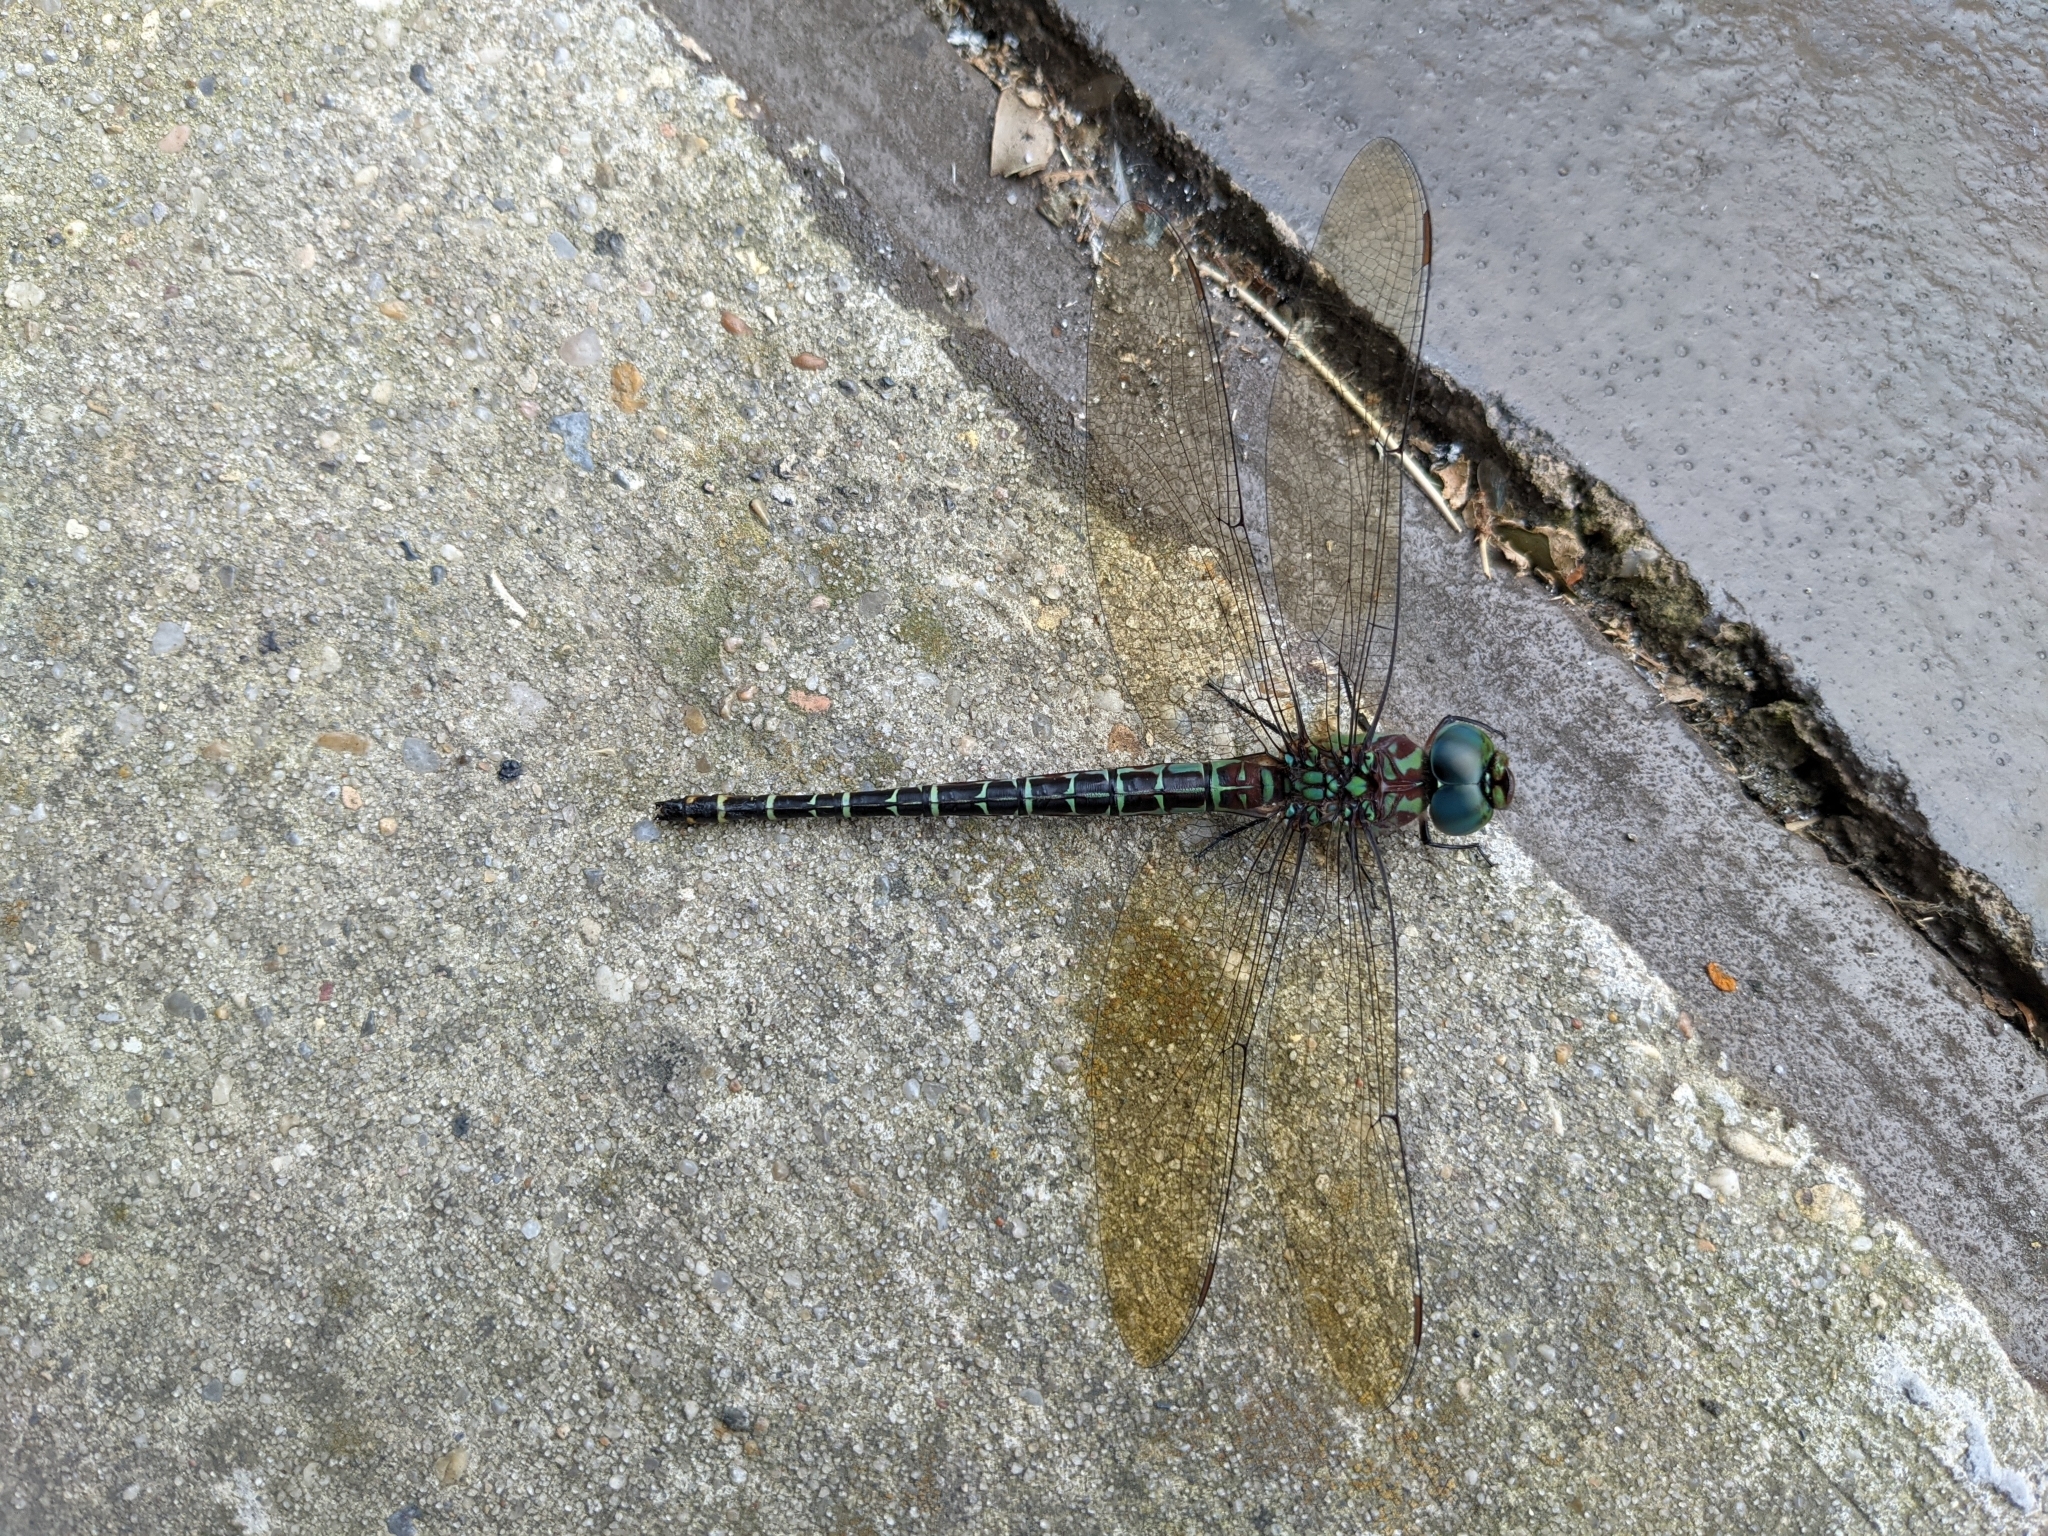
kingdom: Animalia
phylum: Arthropoda
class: Insecta
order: Odonata
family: Aeshnidae
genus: Coryphaeschna
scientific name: Coryphaeschna ingens
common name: Regal darner
